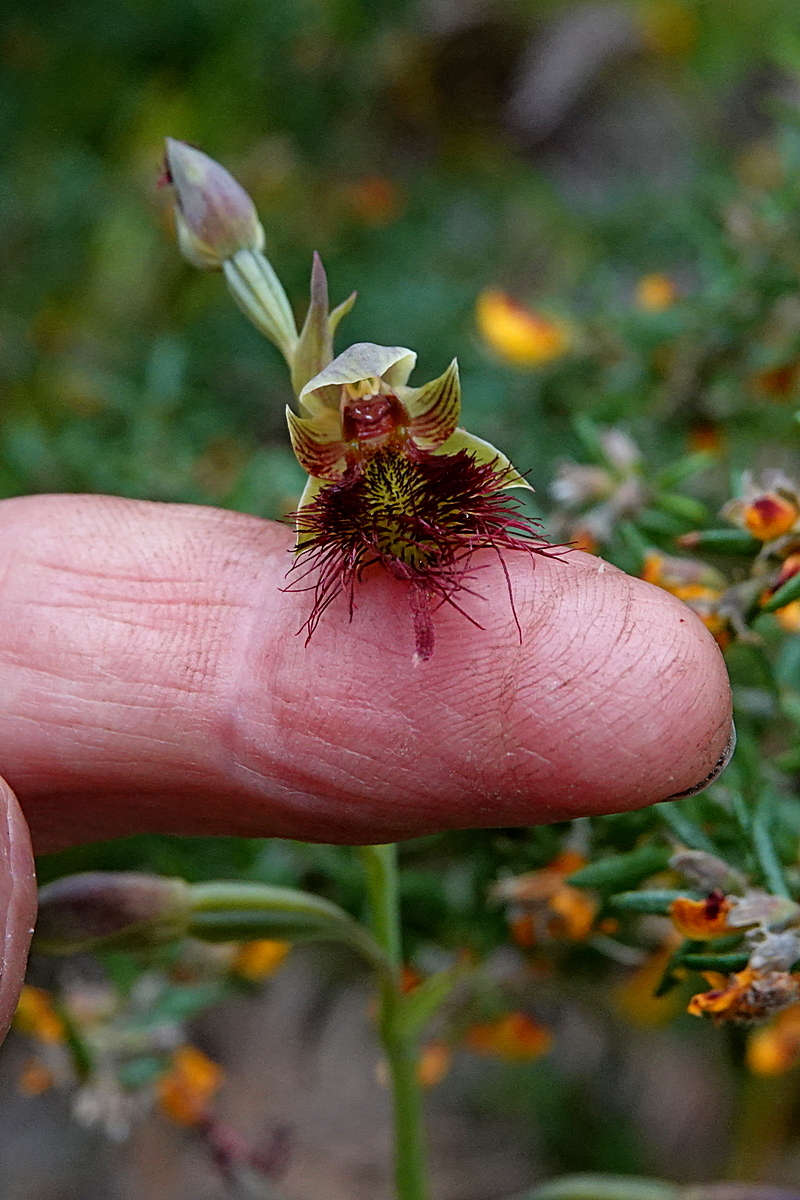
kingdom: Plantae
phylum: Tracheophyta
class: Liliopsida
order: Asparagales
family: Orchidaceae
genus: Calochilus
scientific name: Calochilus paludosus
